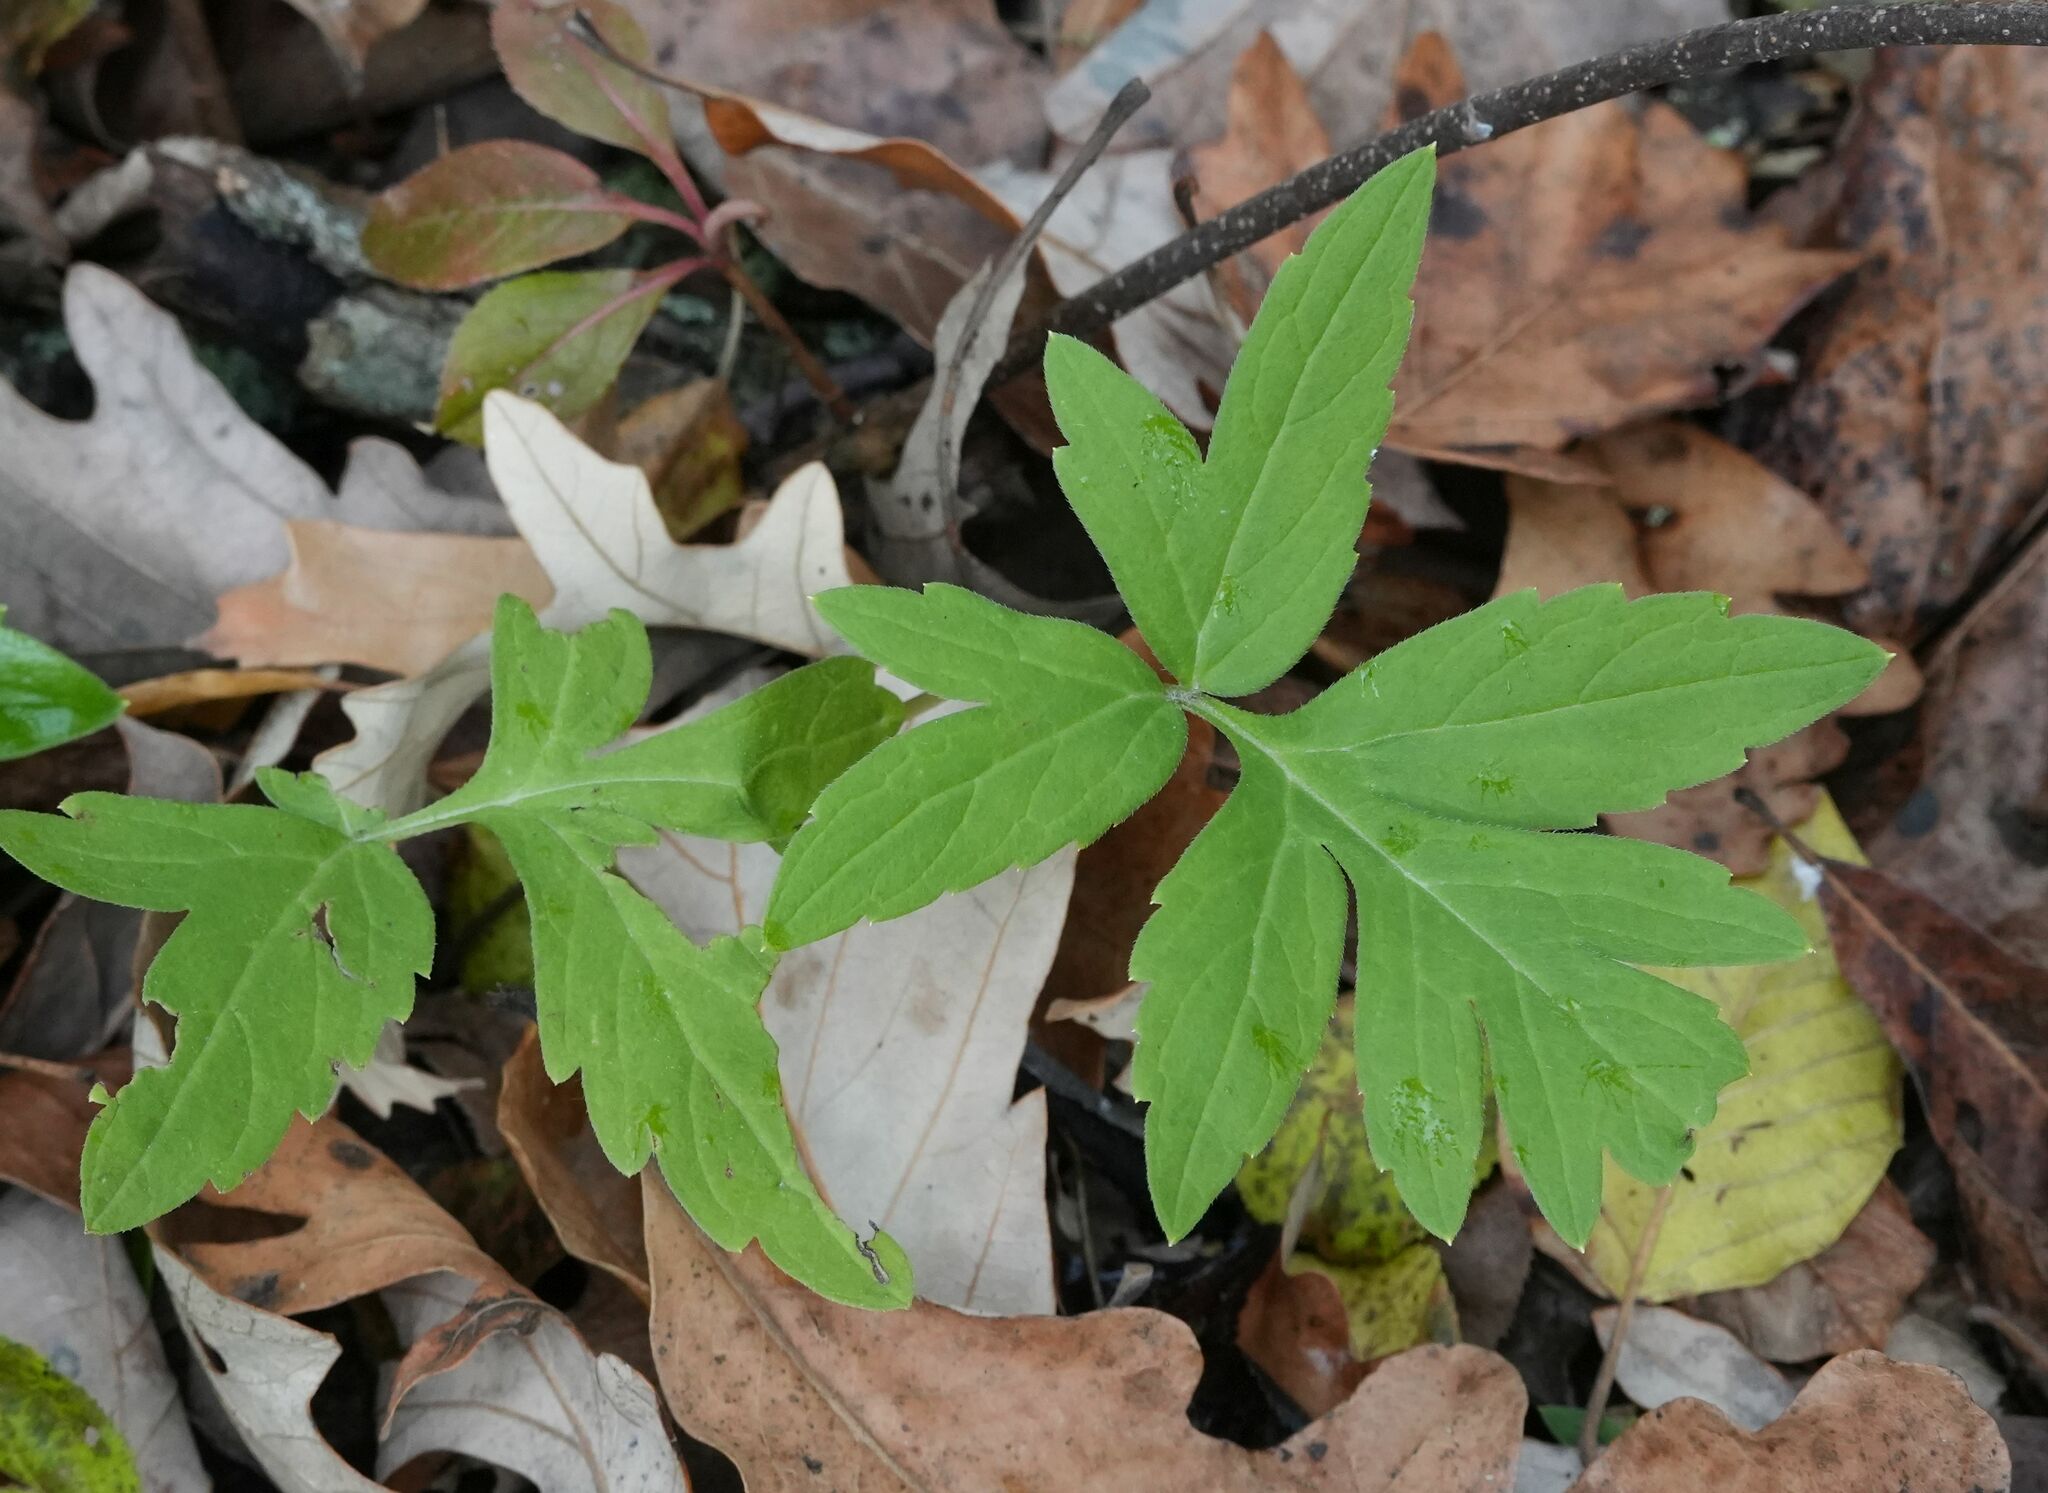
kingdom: Plantae
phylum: Tracheophyta
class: Magnoliopsida
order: Boraginales
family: Hydrophyllaceae
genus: Hydrophyllum
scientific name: Hydrophyllum virginianum
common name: Virginia waterleaf
